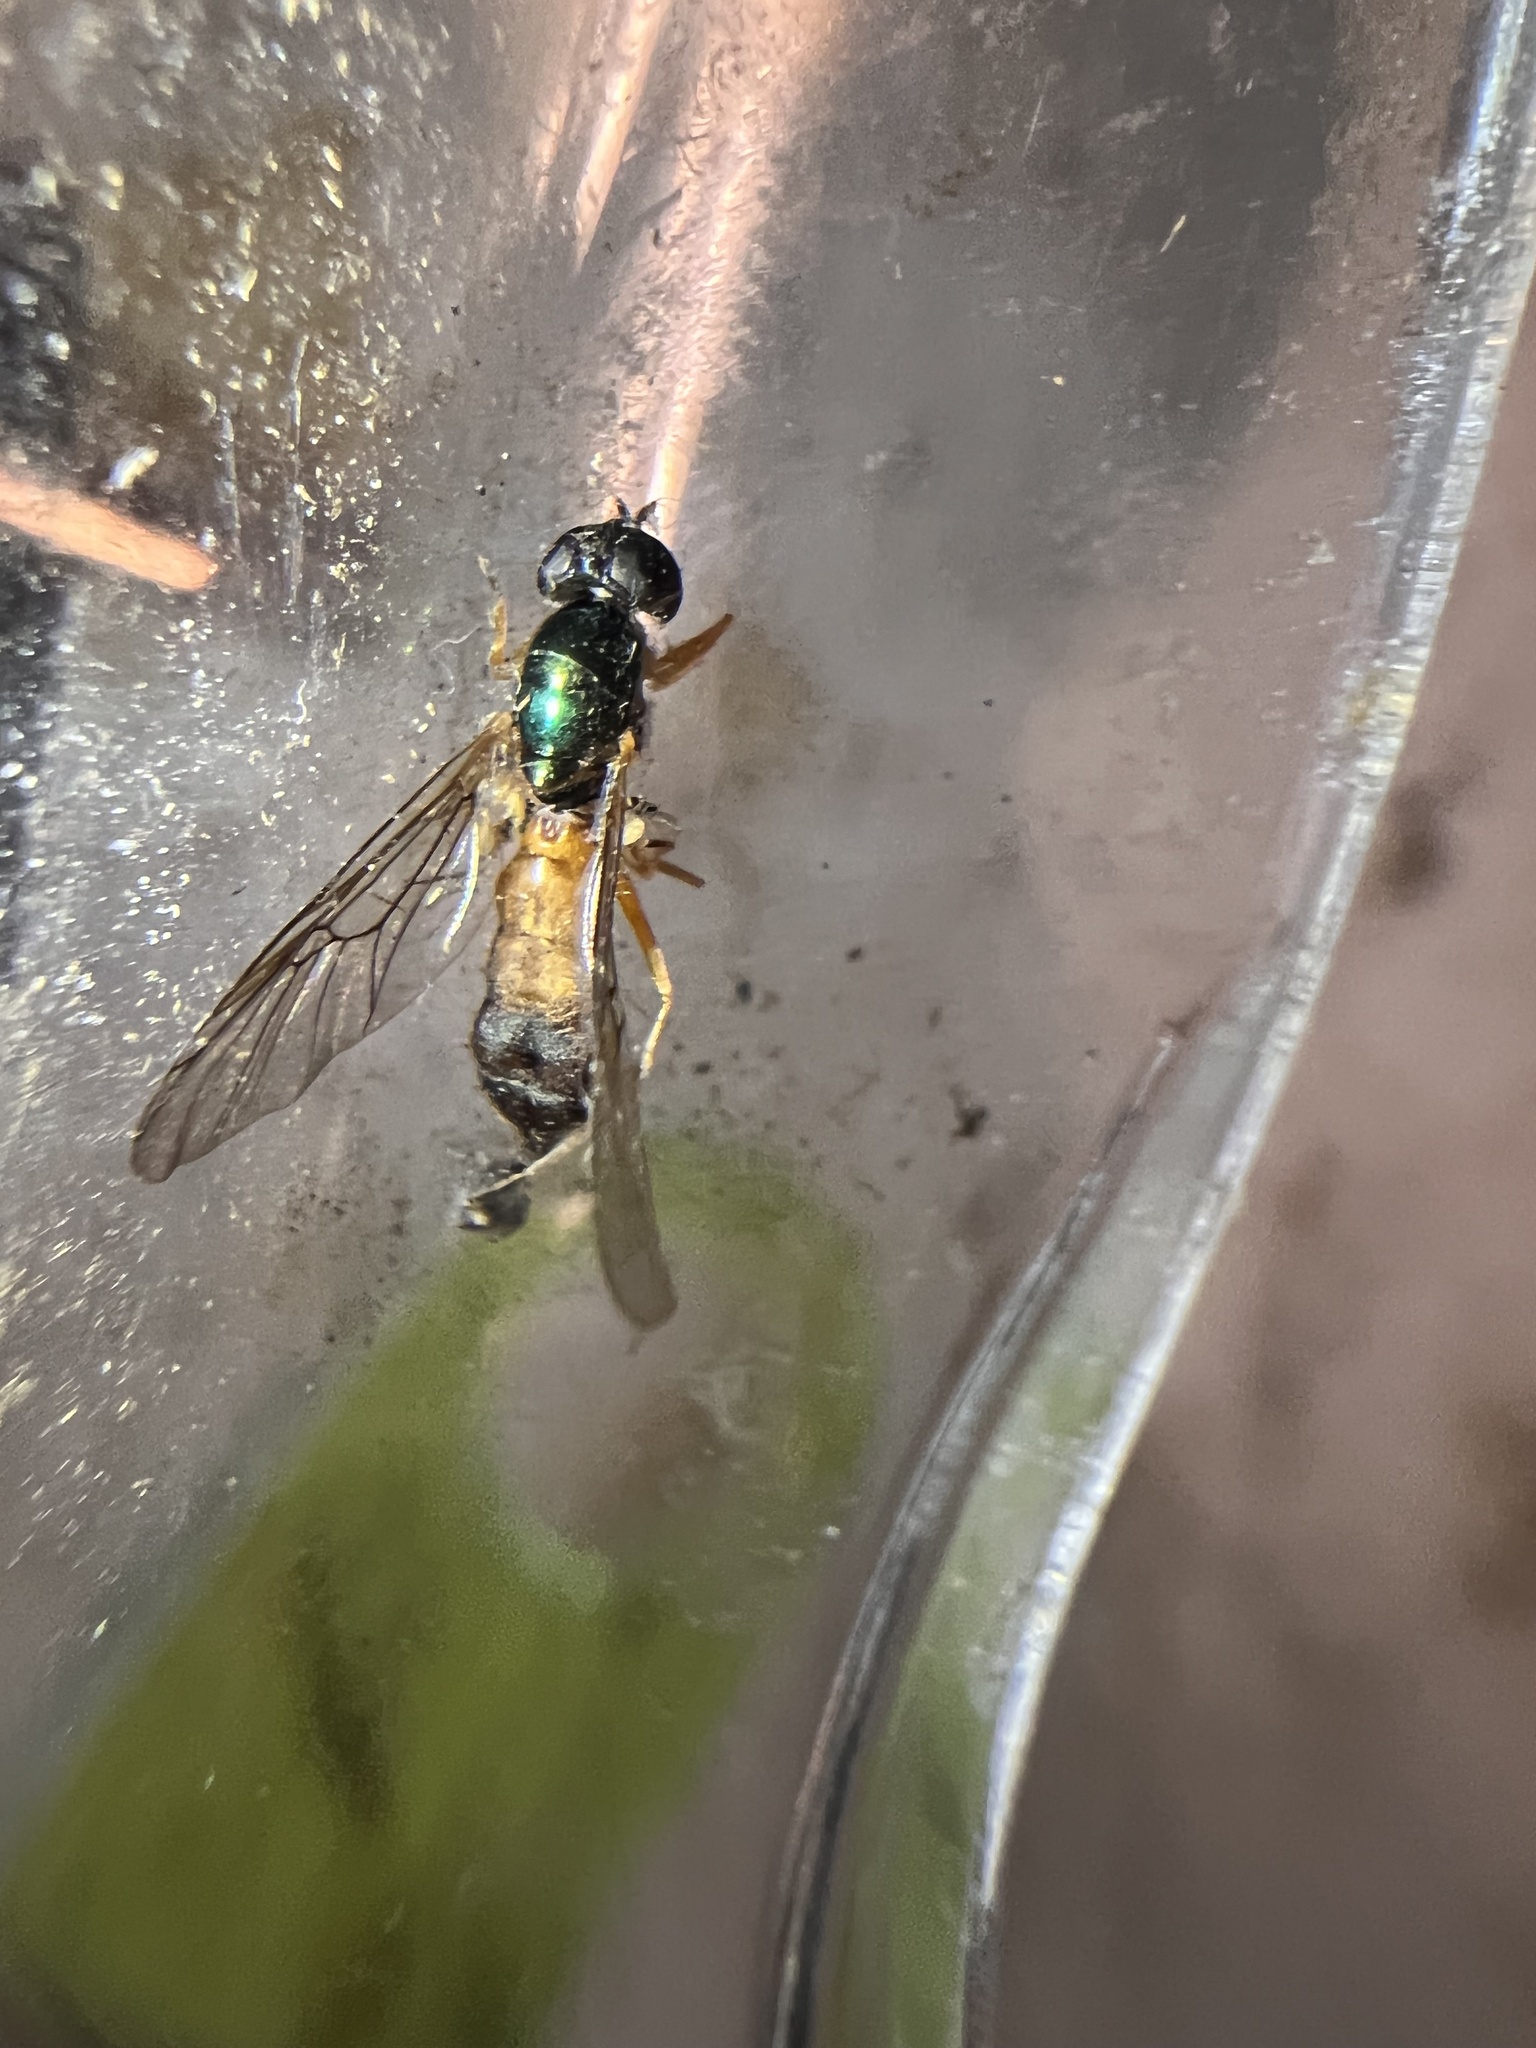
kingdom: Animalia
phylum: Arthropoda
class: Insecta
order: Diptera
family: Stratiomyidae
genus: Sargus
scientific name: Sargus bipunctatus
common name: Twin-spot centurion
